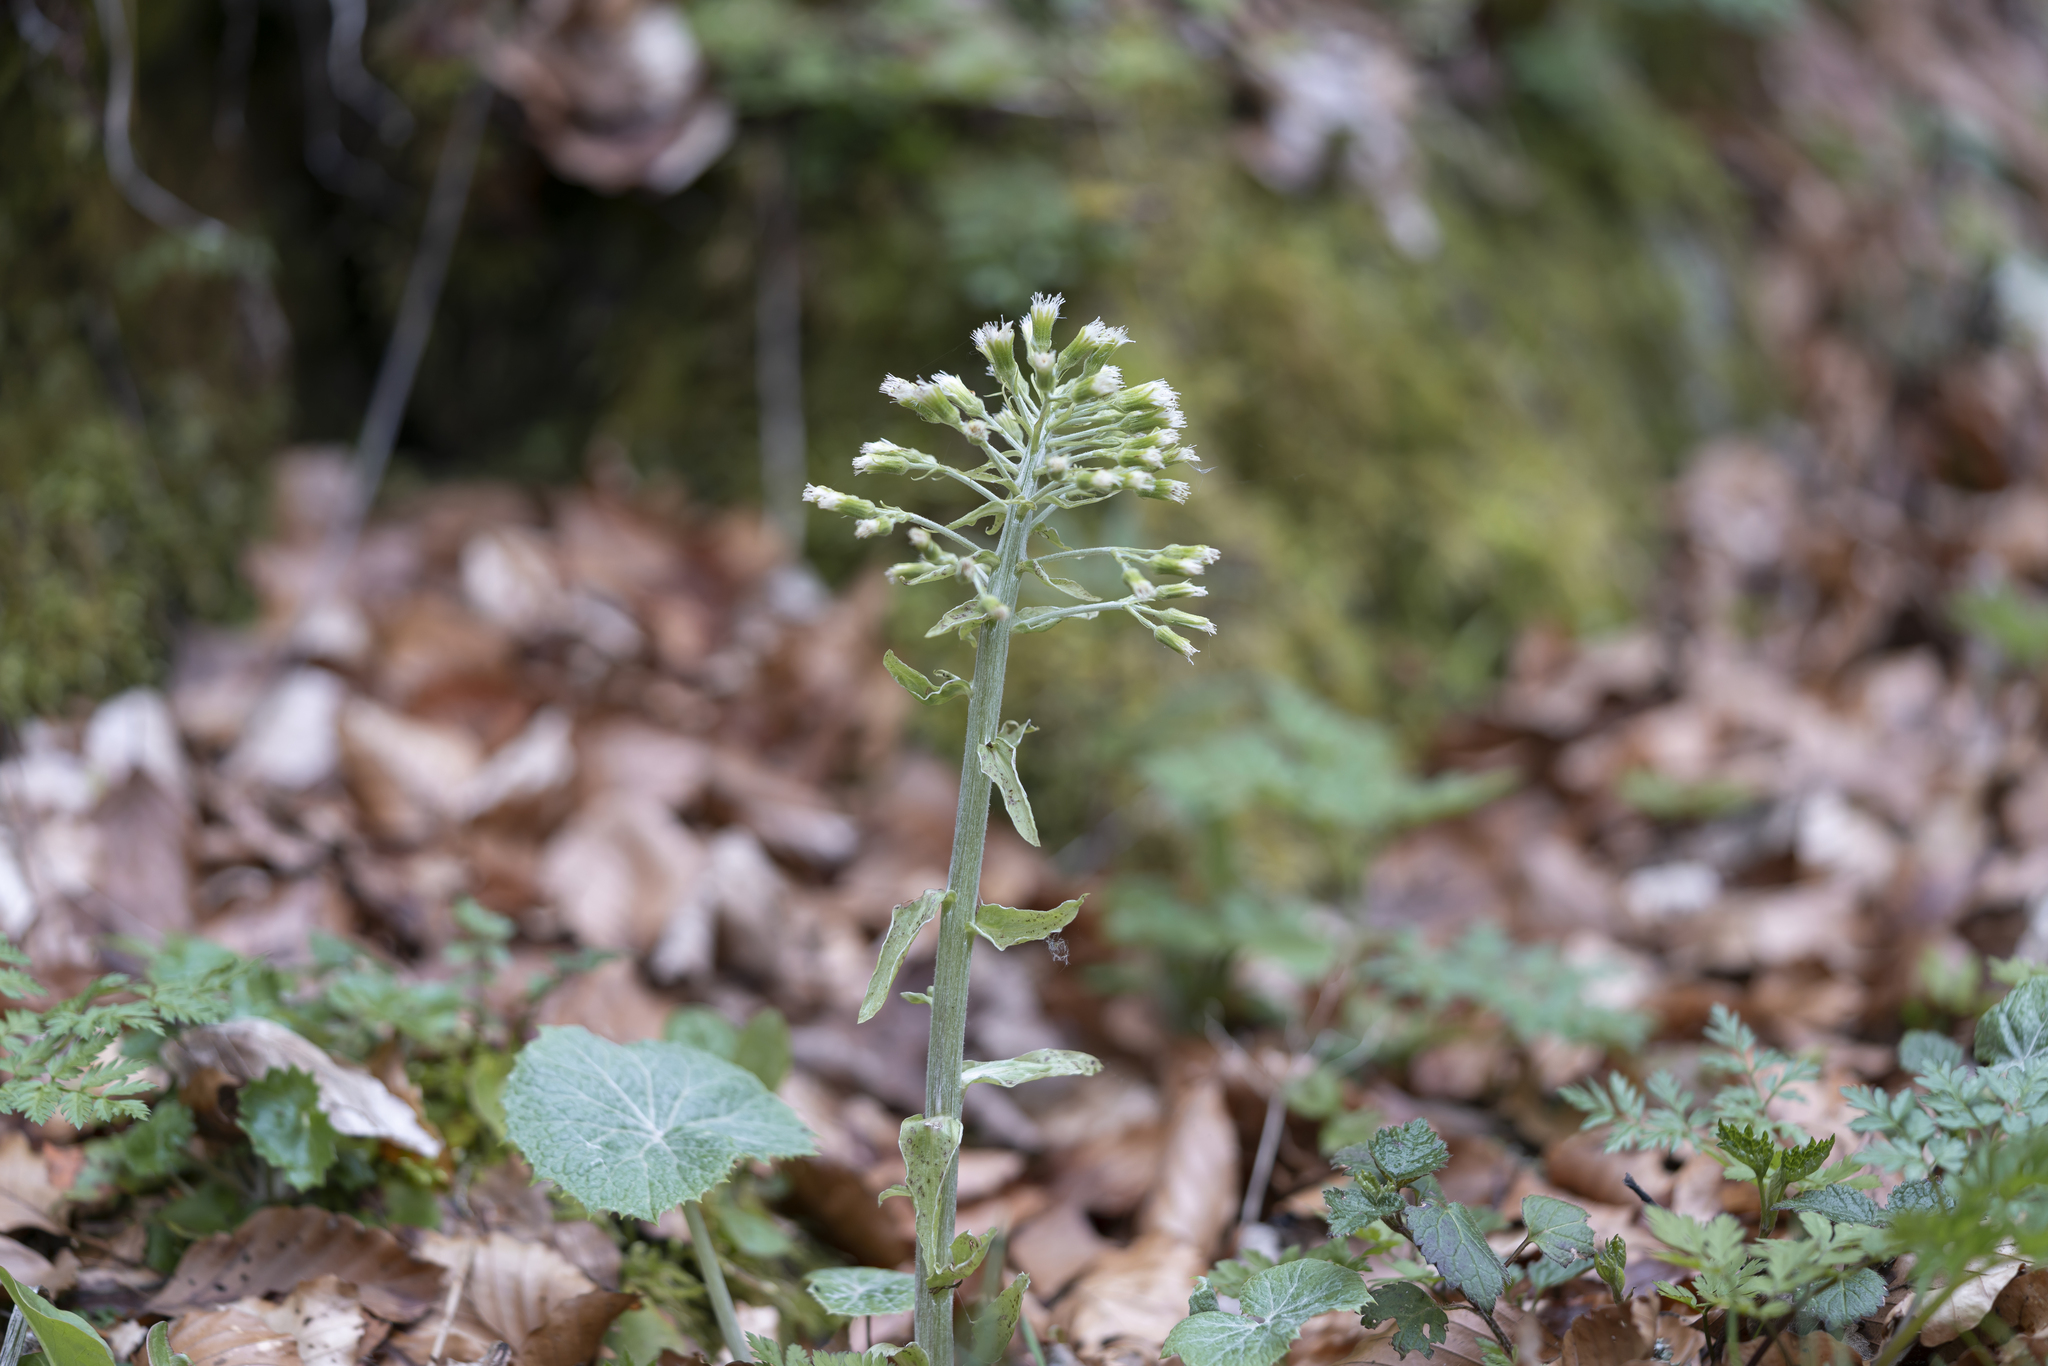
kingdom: Plantae
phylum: Tracheophyta
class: Magnoliopsida
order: Asterales
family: Asteraceae
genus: Petasites
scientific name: Petasites albus
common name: White butterbur
